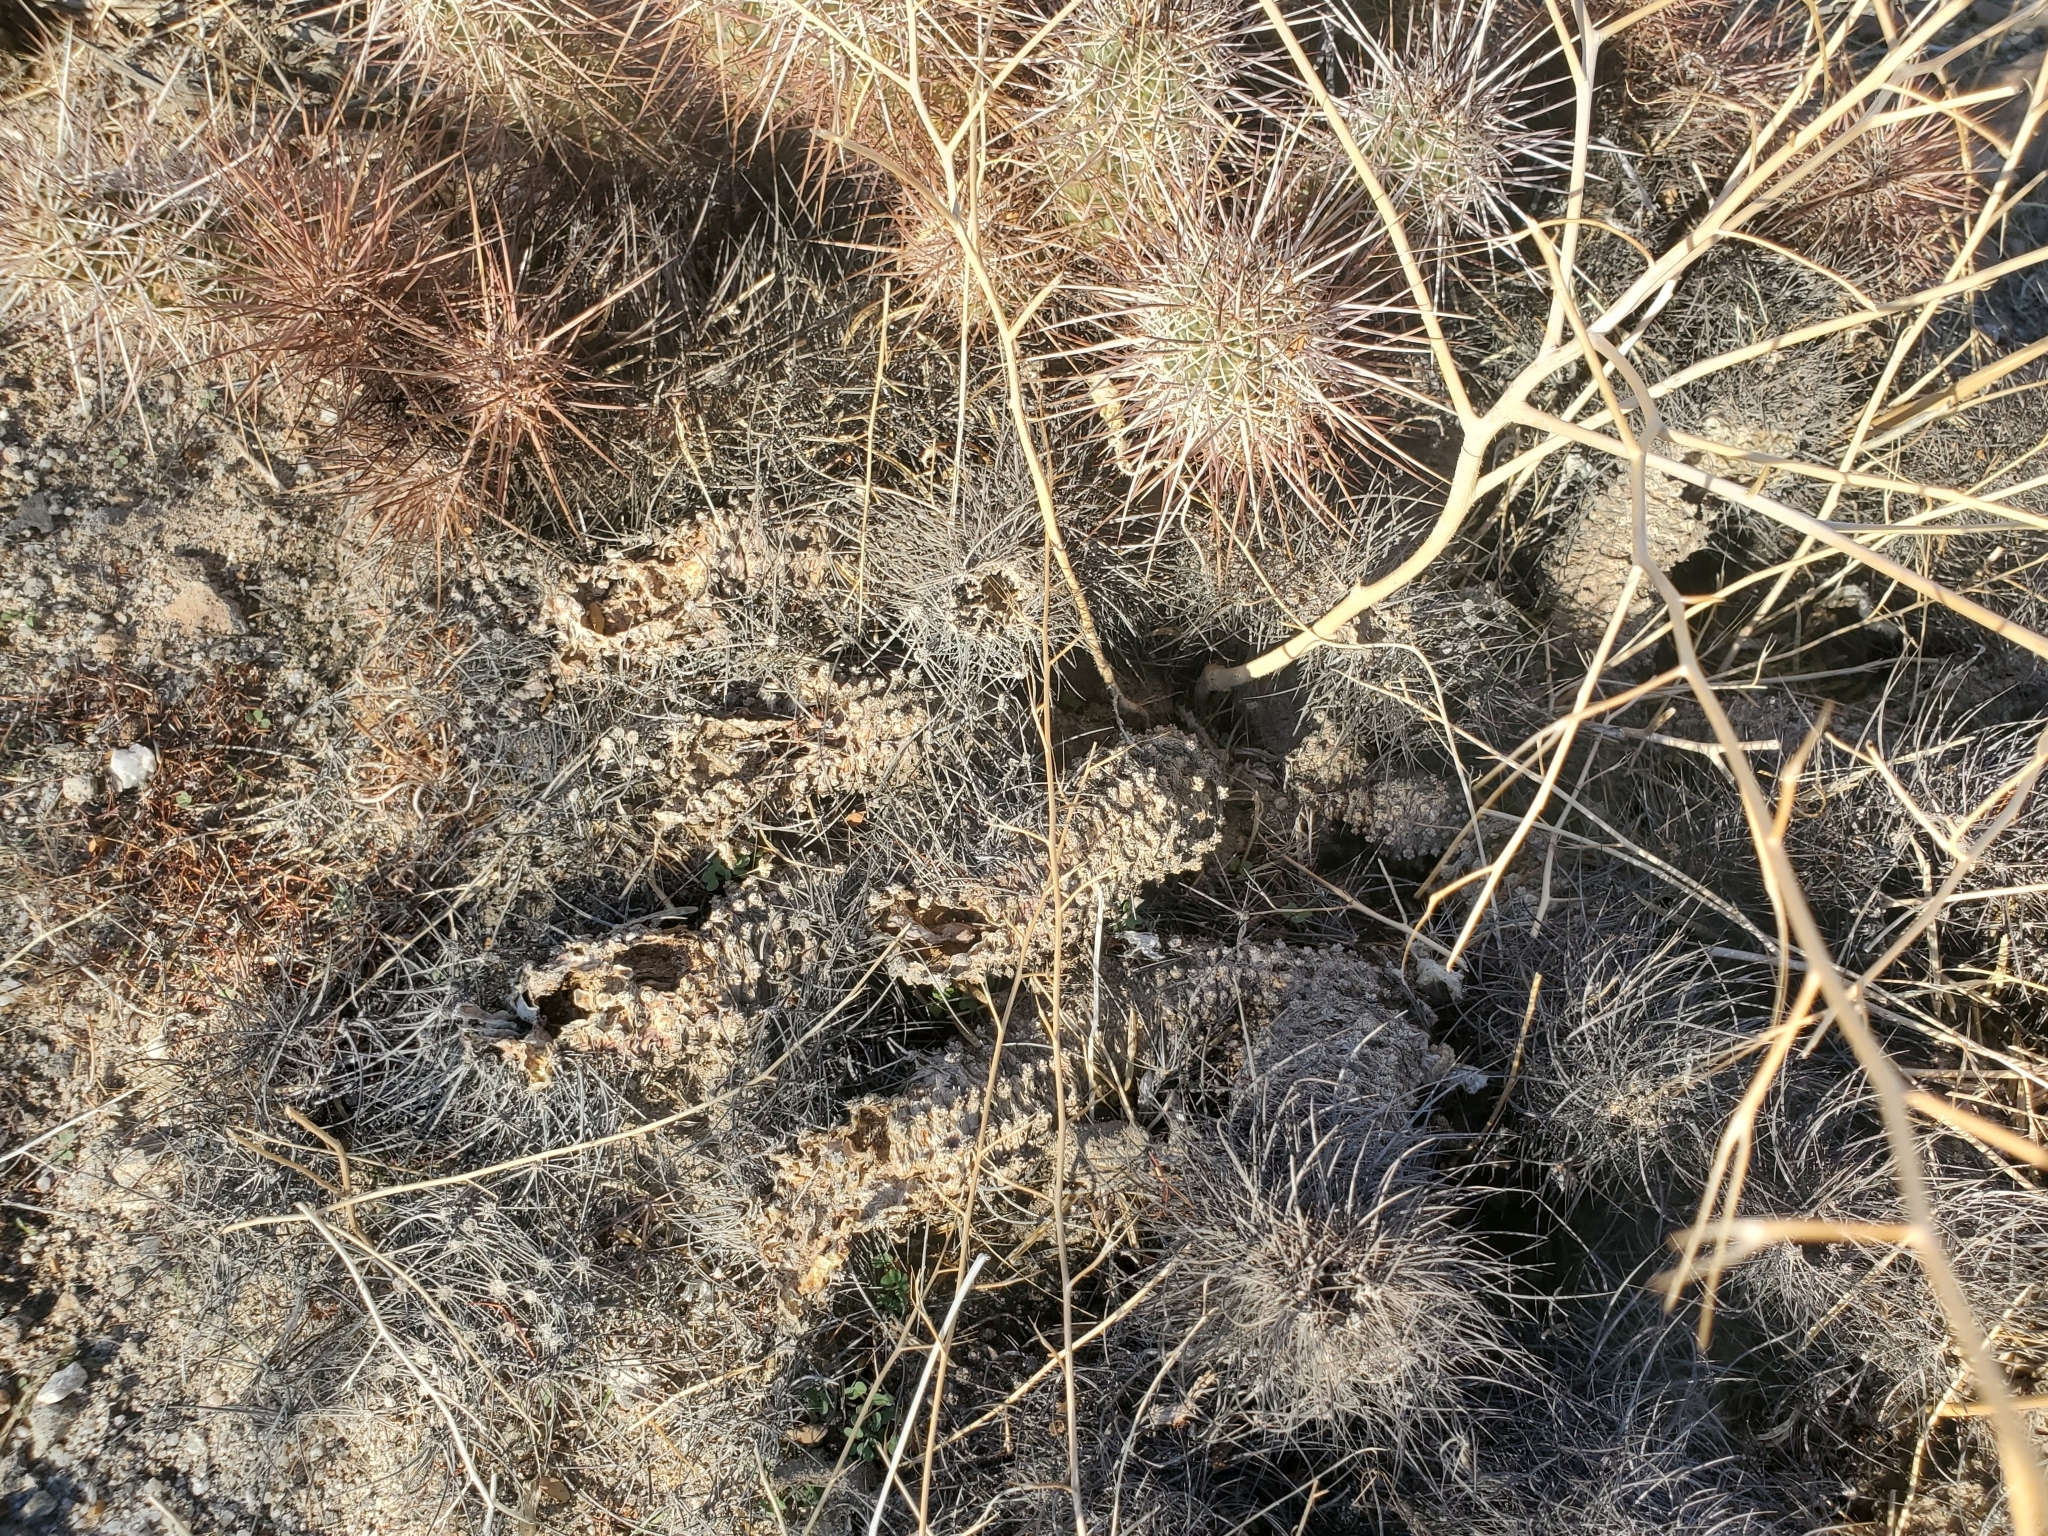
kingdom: Plantae
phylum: Tracheophyta
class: Magnoliopsida
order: Caryophyllales
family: Cactaceae
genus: Echinocereus
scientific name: Echinocereus engelmannii
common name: Engelmann's hedgehog cactus
